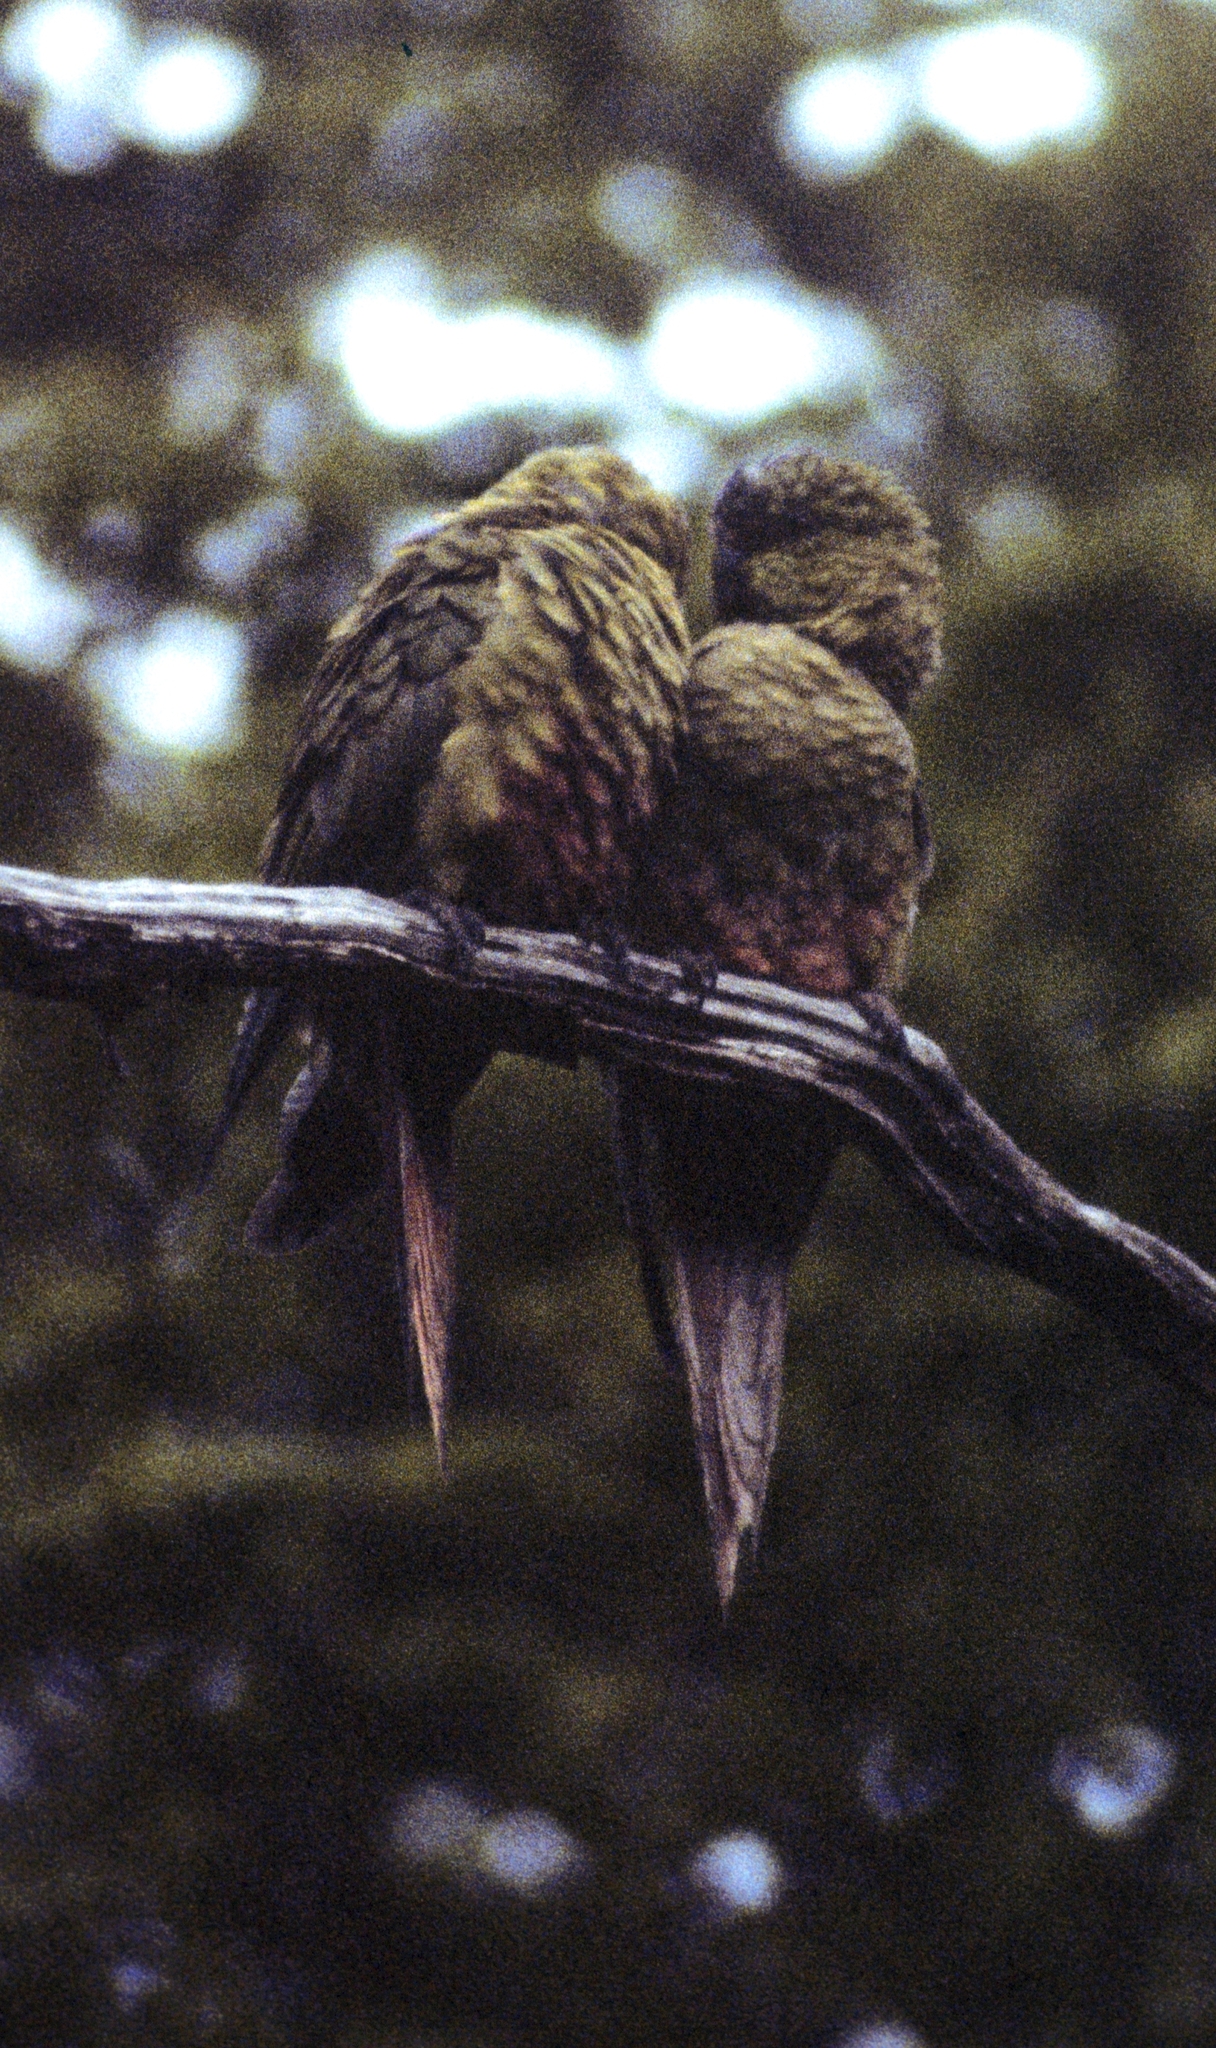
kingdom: Animalia
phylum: Chordata
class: Aves
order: Psittaciformes
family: Psittacidae
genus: Enicognathus
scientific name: Enicognathus ferrugineus
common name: Austral parakeet
